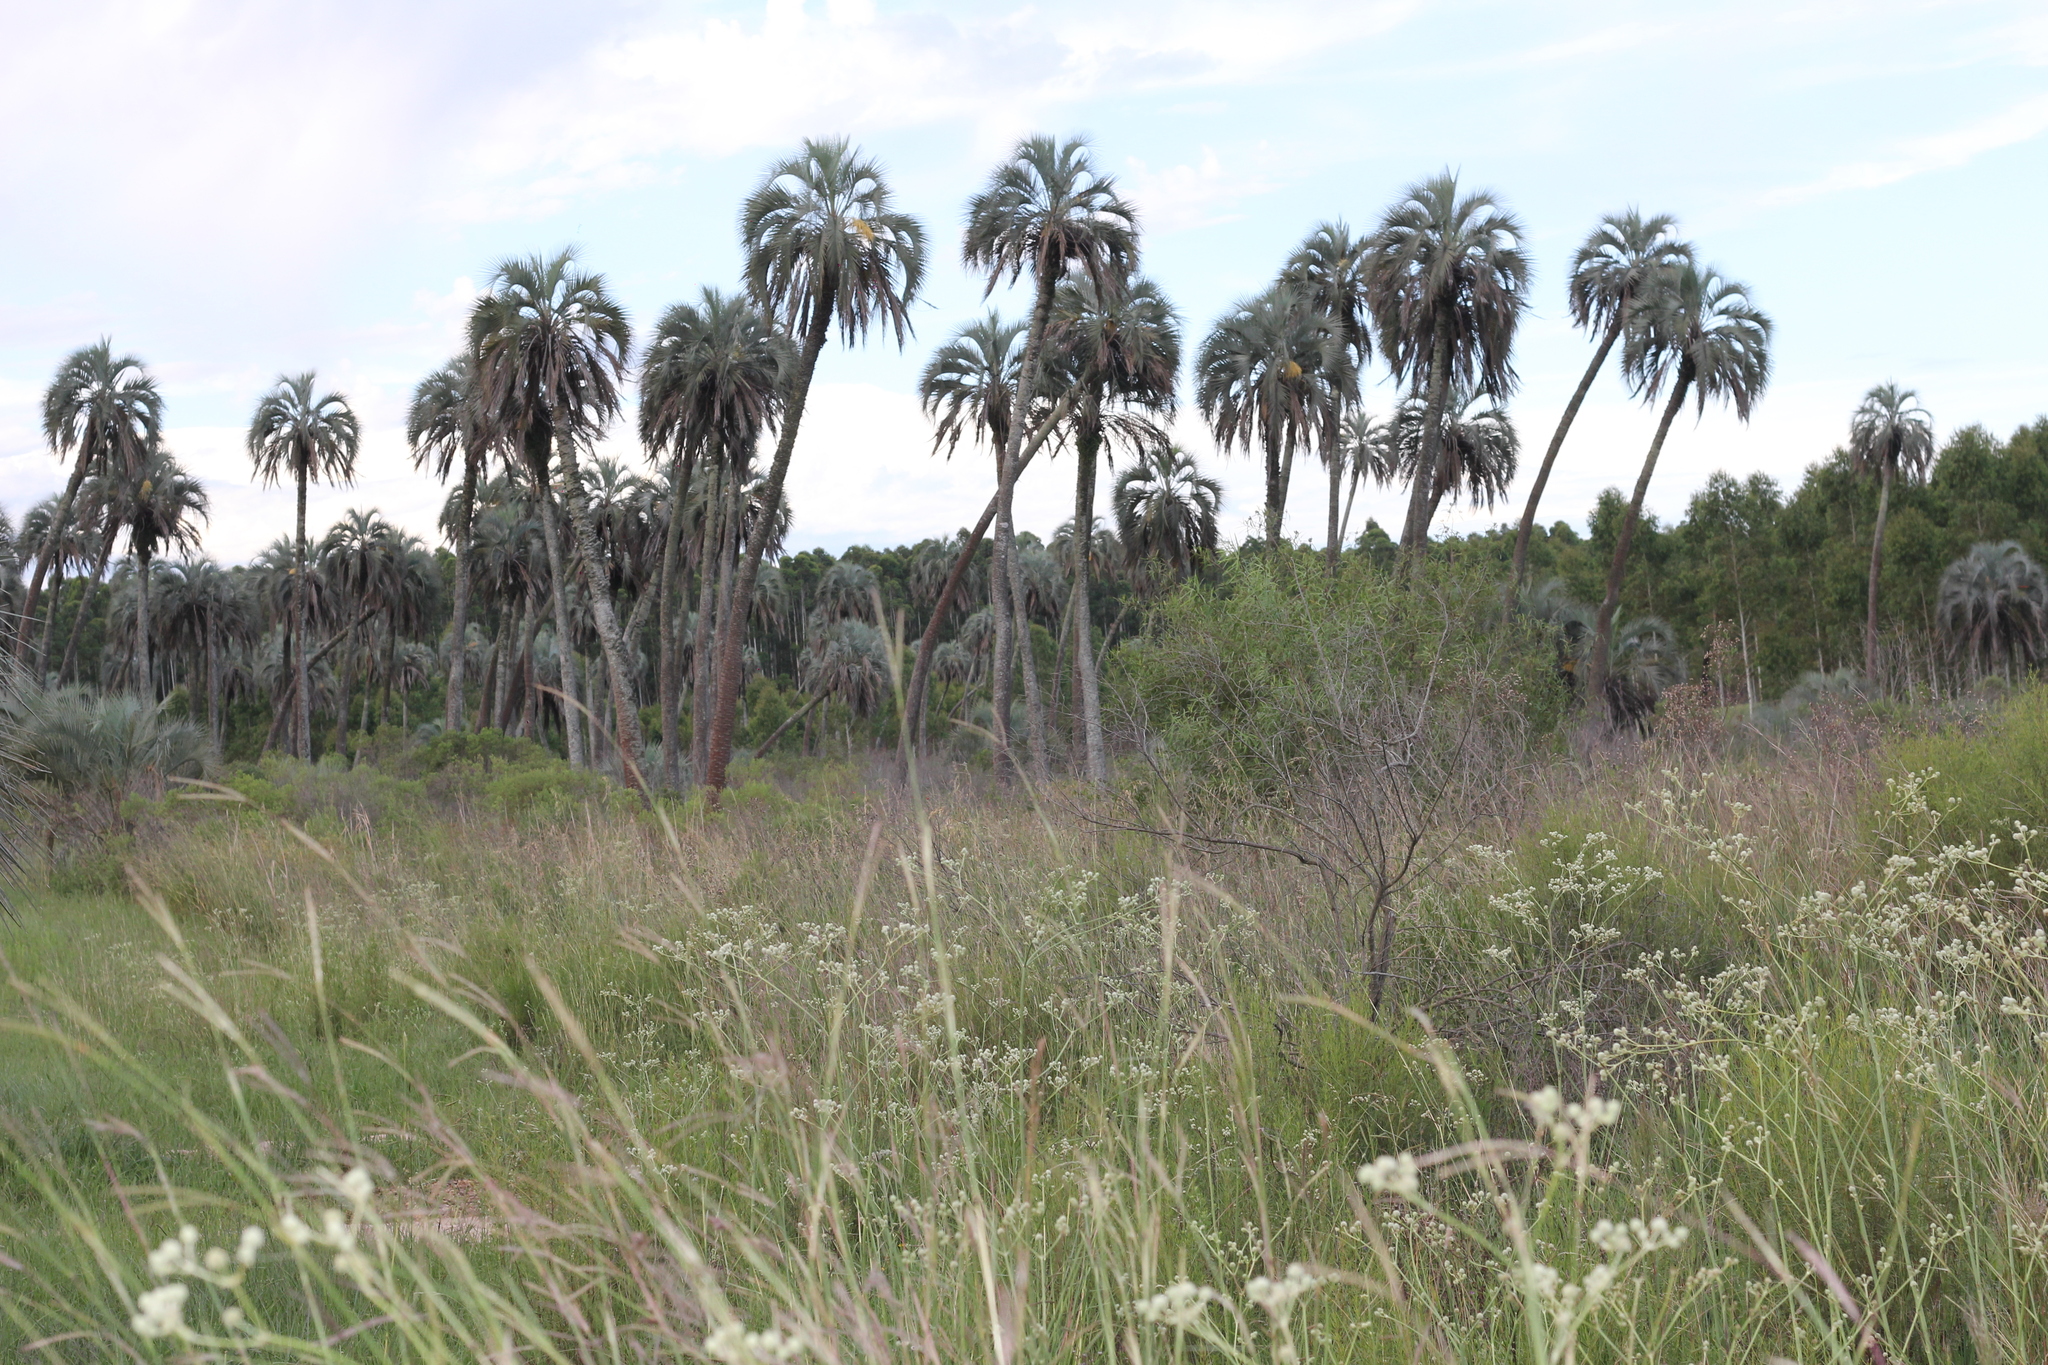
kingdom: Plantae
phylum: Tracheophyta
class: Liliopsida
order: Arecales
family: Arecaceae
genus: Butia
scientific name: Butia yatay
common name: Yatay palm
